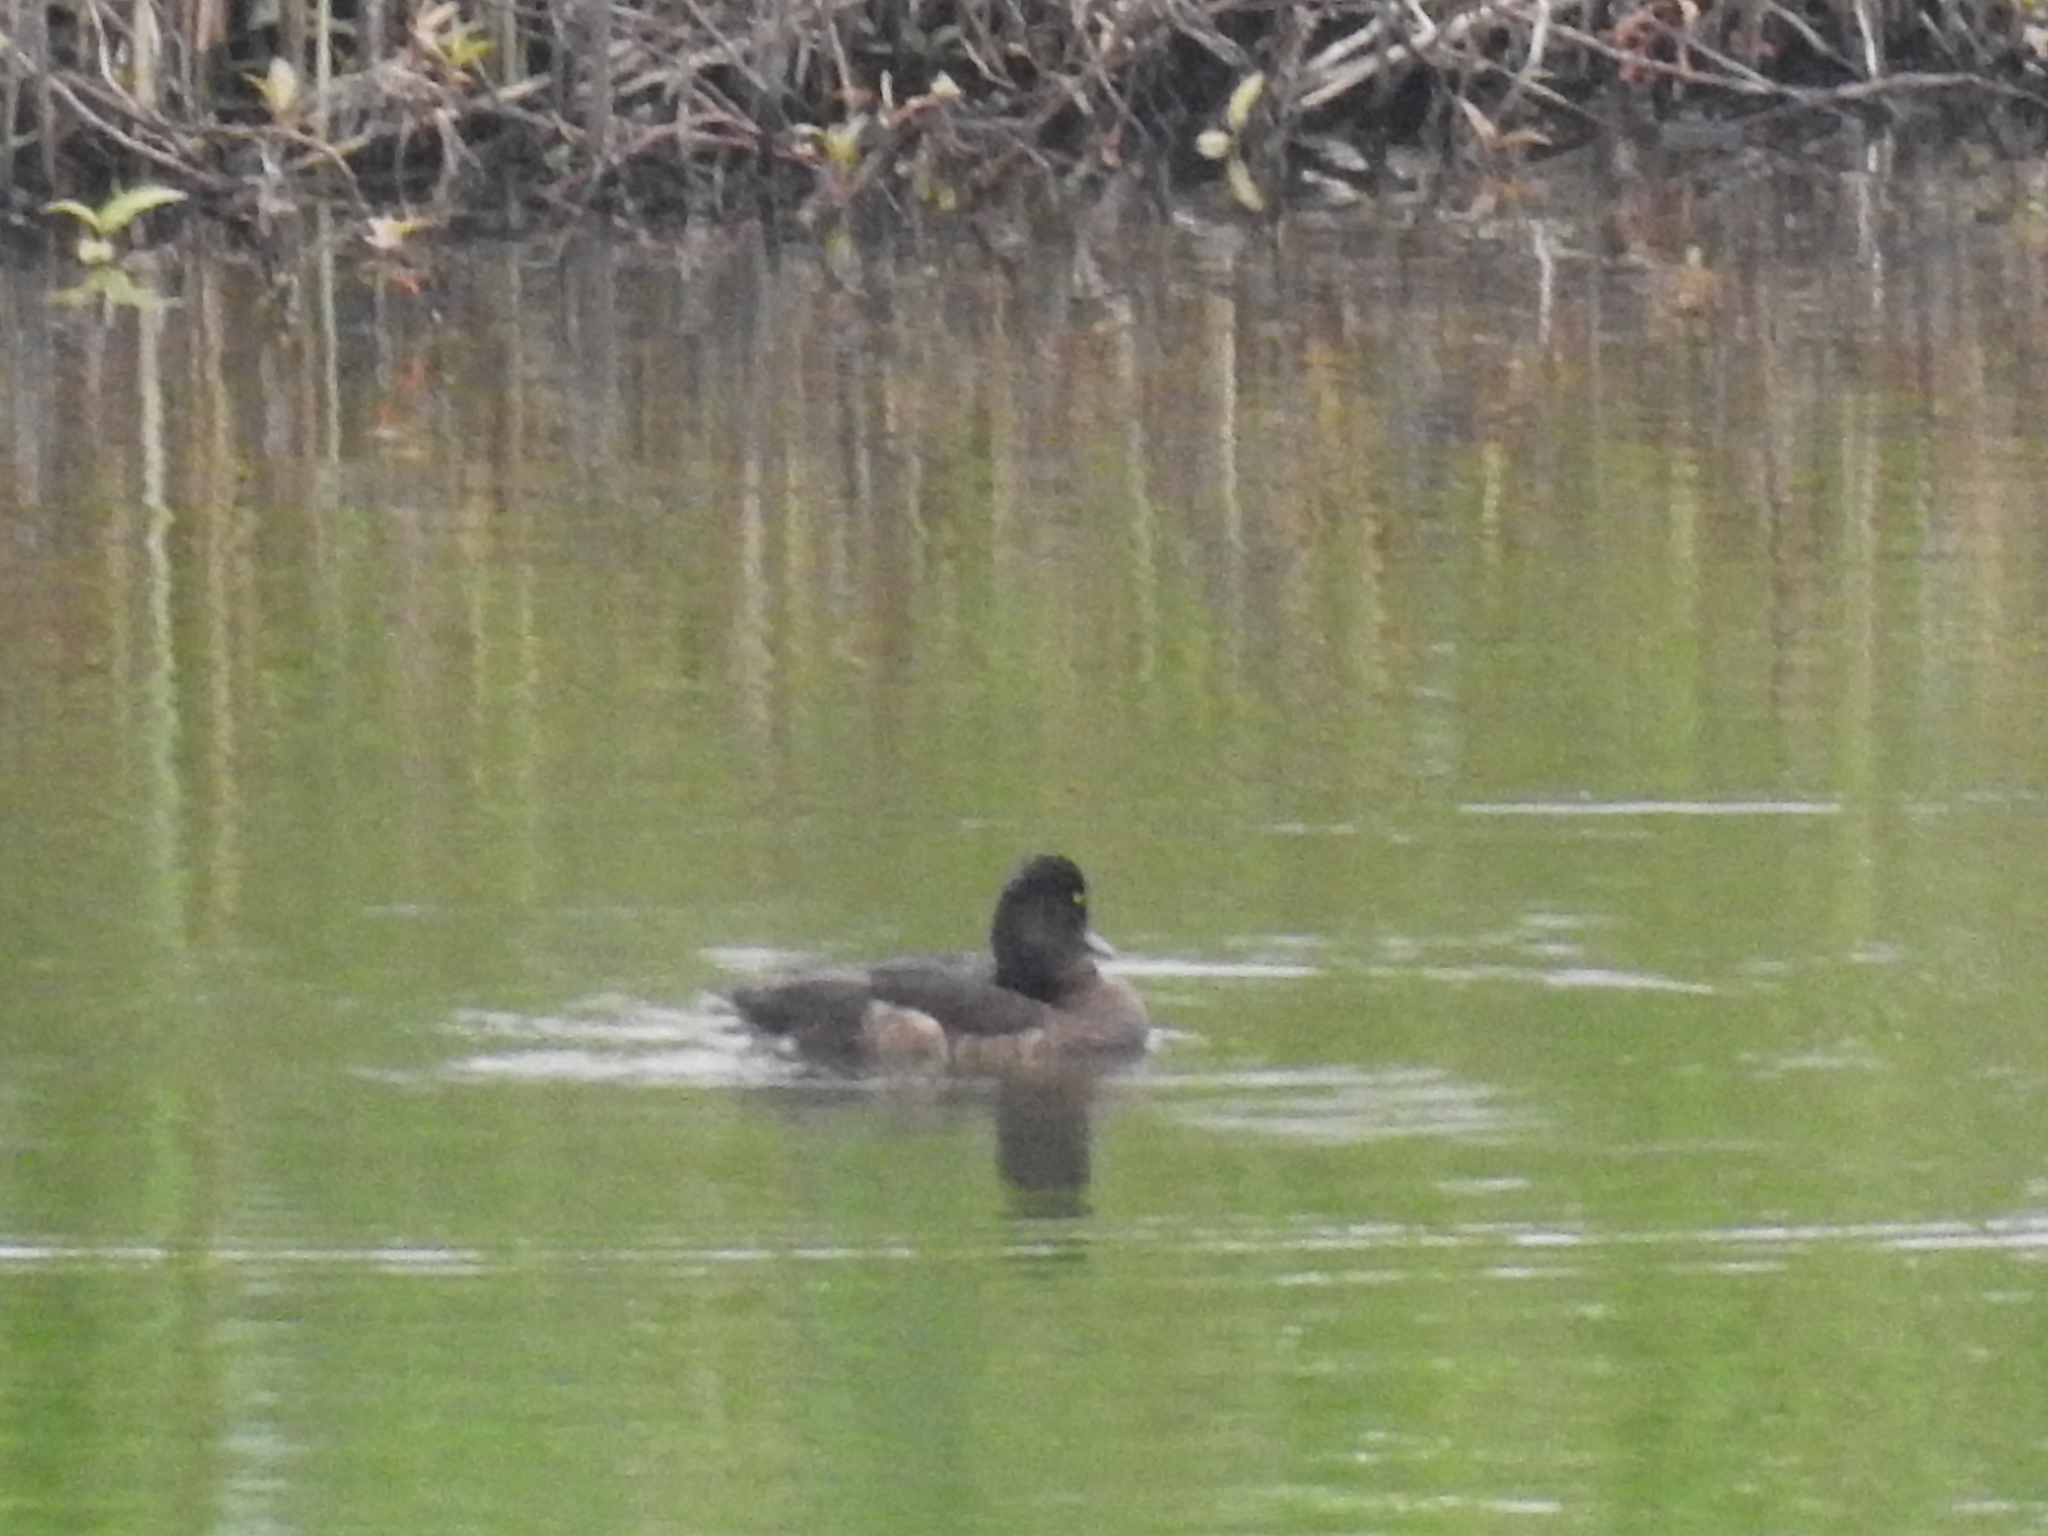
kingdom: Animalia
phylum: Chordata
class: Aves
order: Anseriformes
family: Anatidae
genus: Aythya
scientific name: Aythya fuligula
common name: Tufted duck
